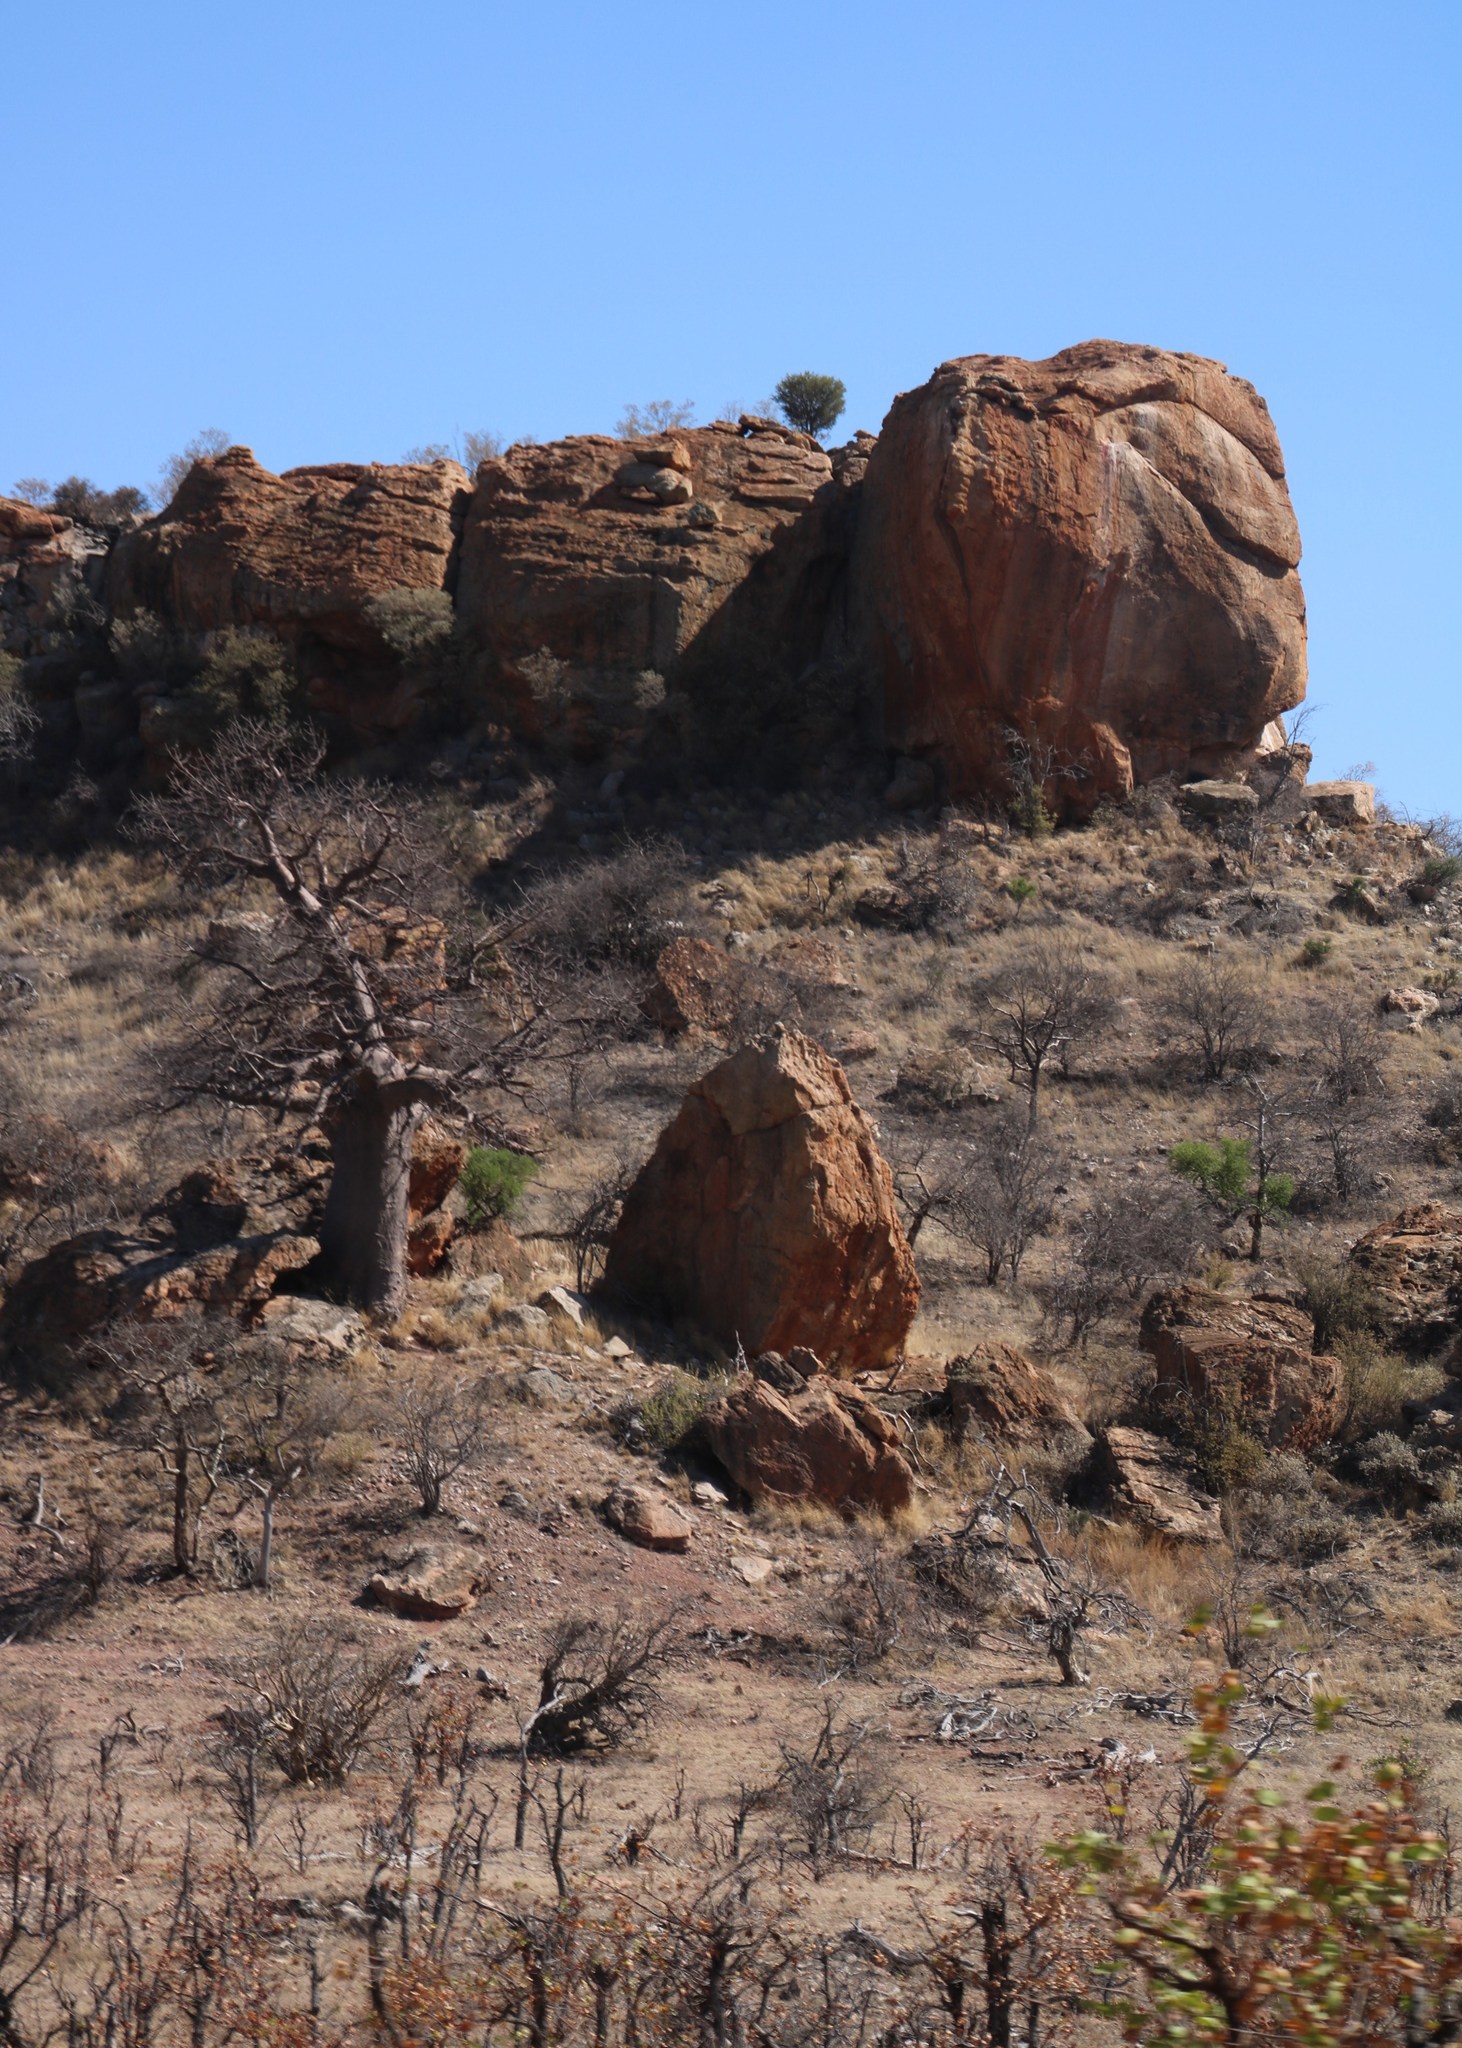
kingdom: Plantae
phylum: Tracheophyta
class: Magnoliopsida
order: Malvales
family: Malvaceae
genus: Adansonia
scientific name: Adansonia digitata
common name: Dead-rat-tree
